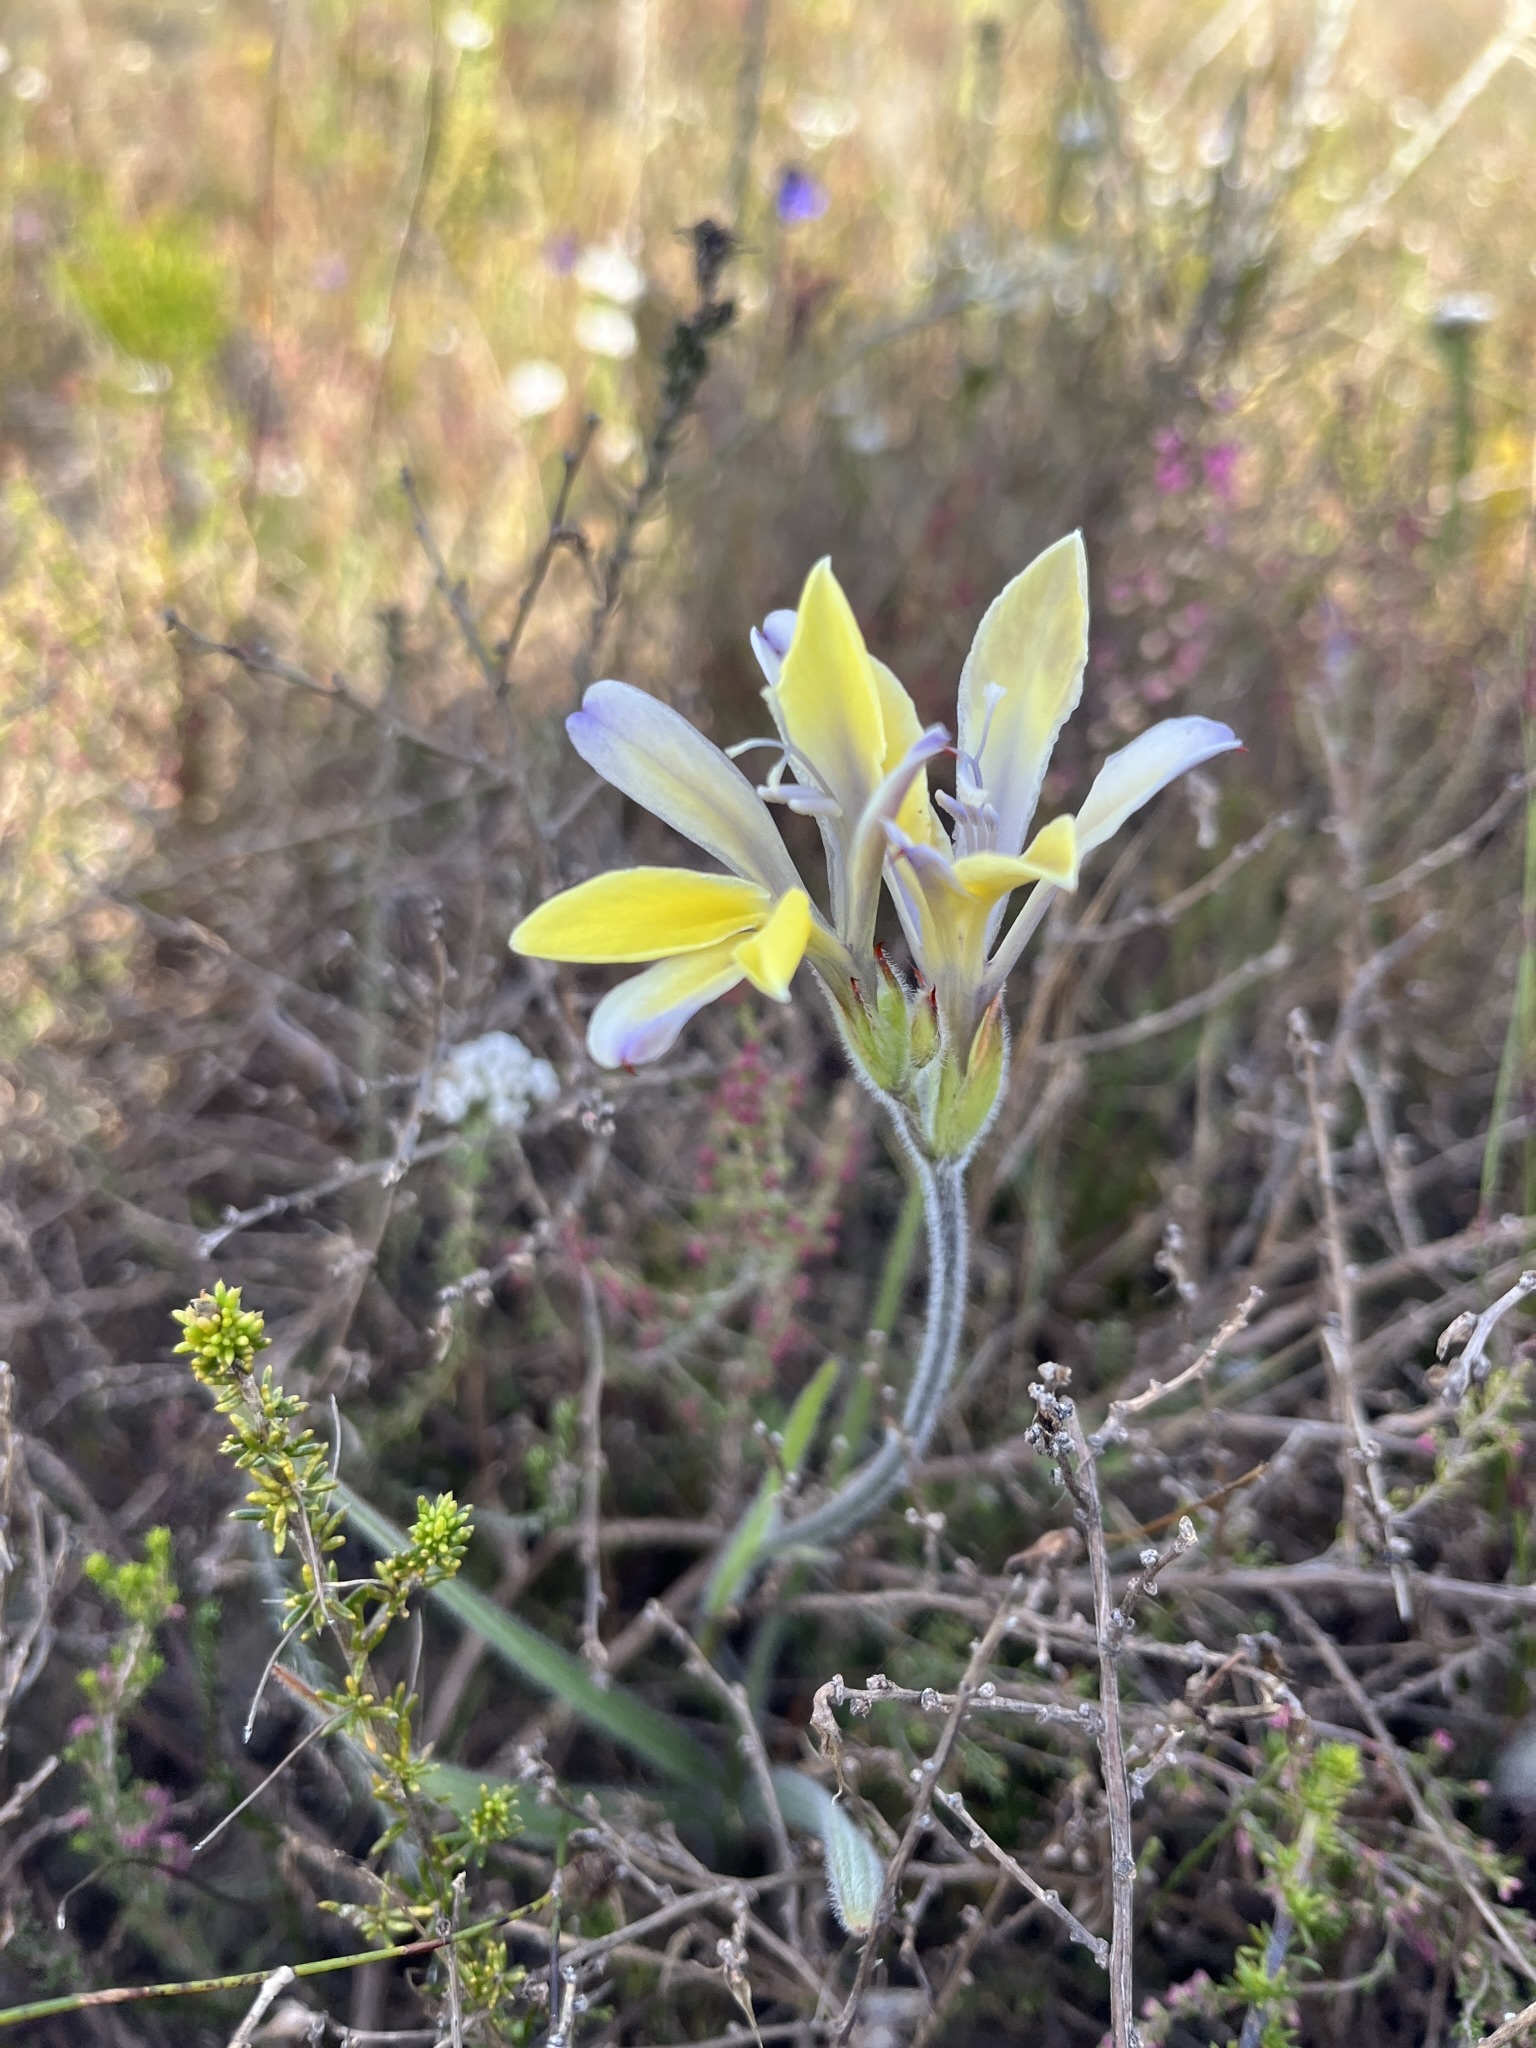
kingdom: Plantae
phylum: Tracheophyta
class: Liliopsida
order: Asparagales
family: Iridaceae
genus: Babiana
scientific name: Babiana patula
